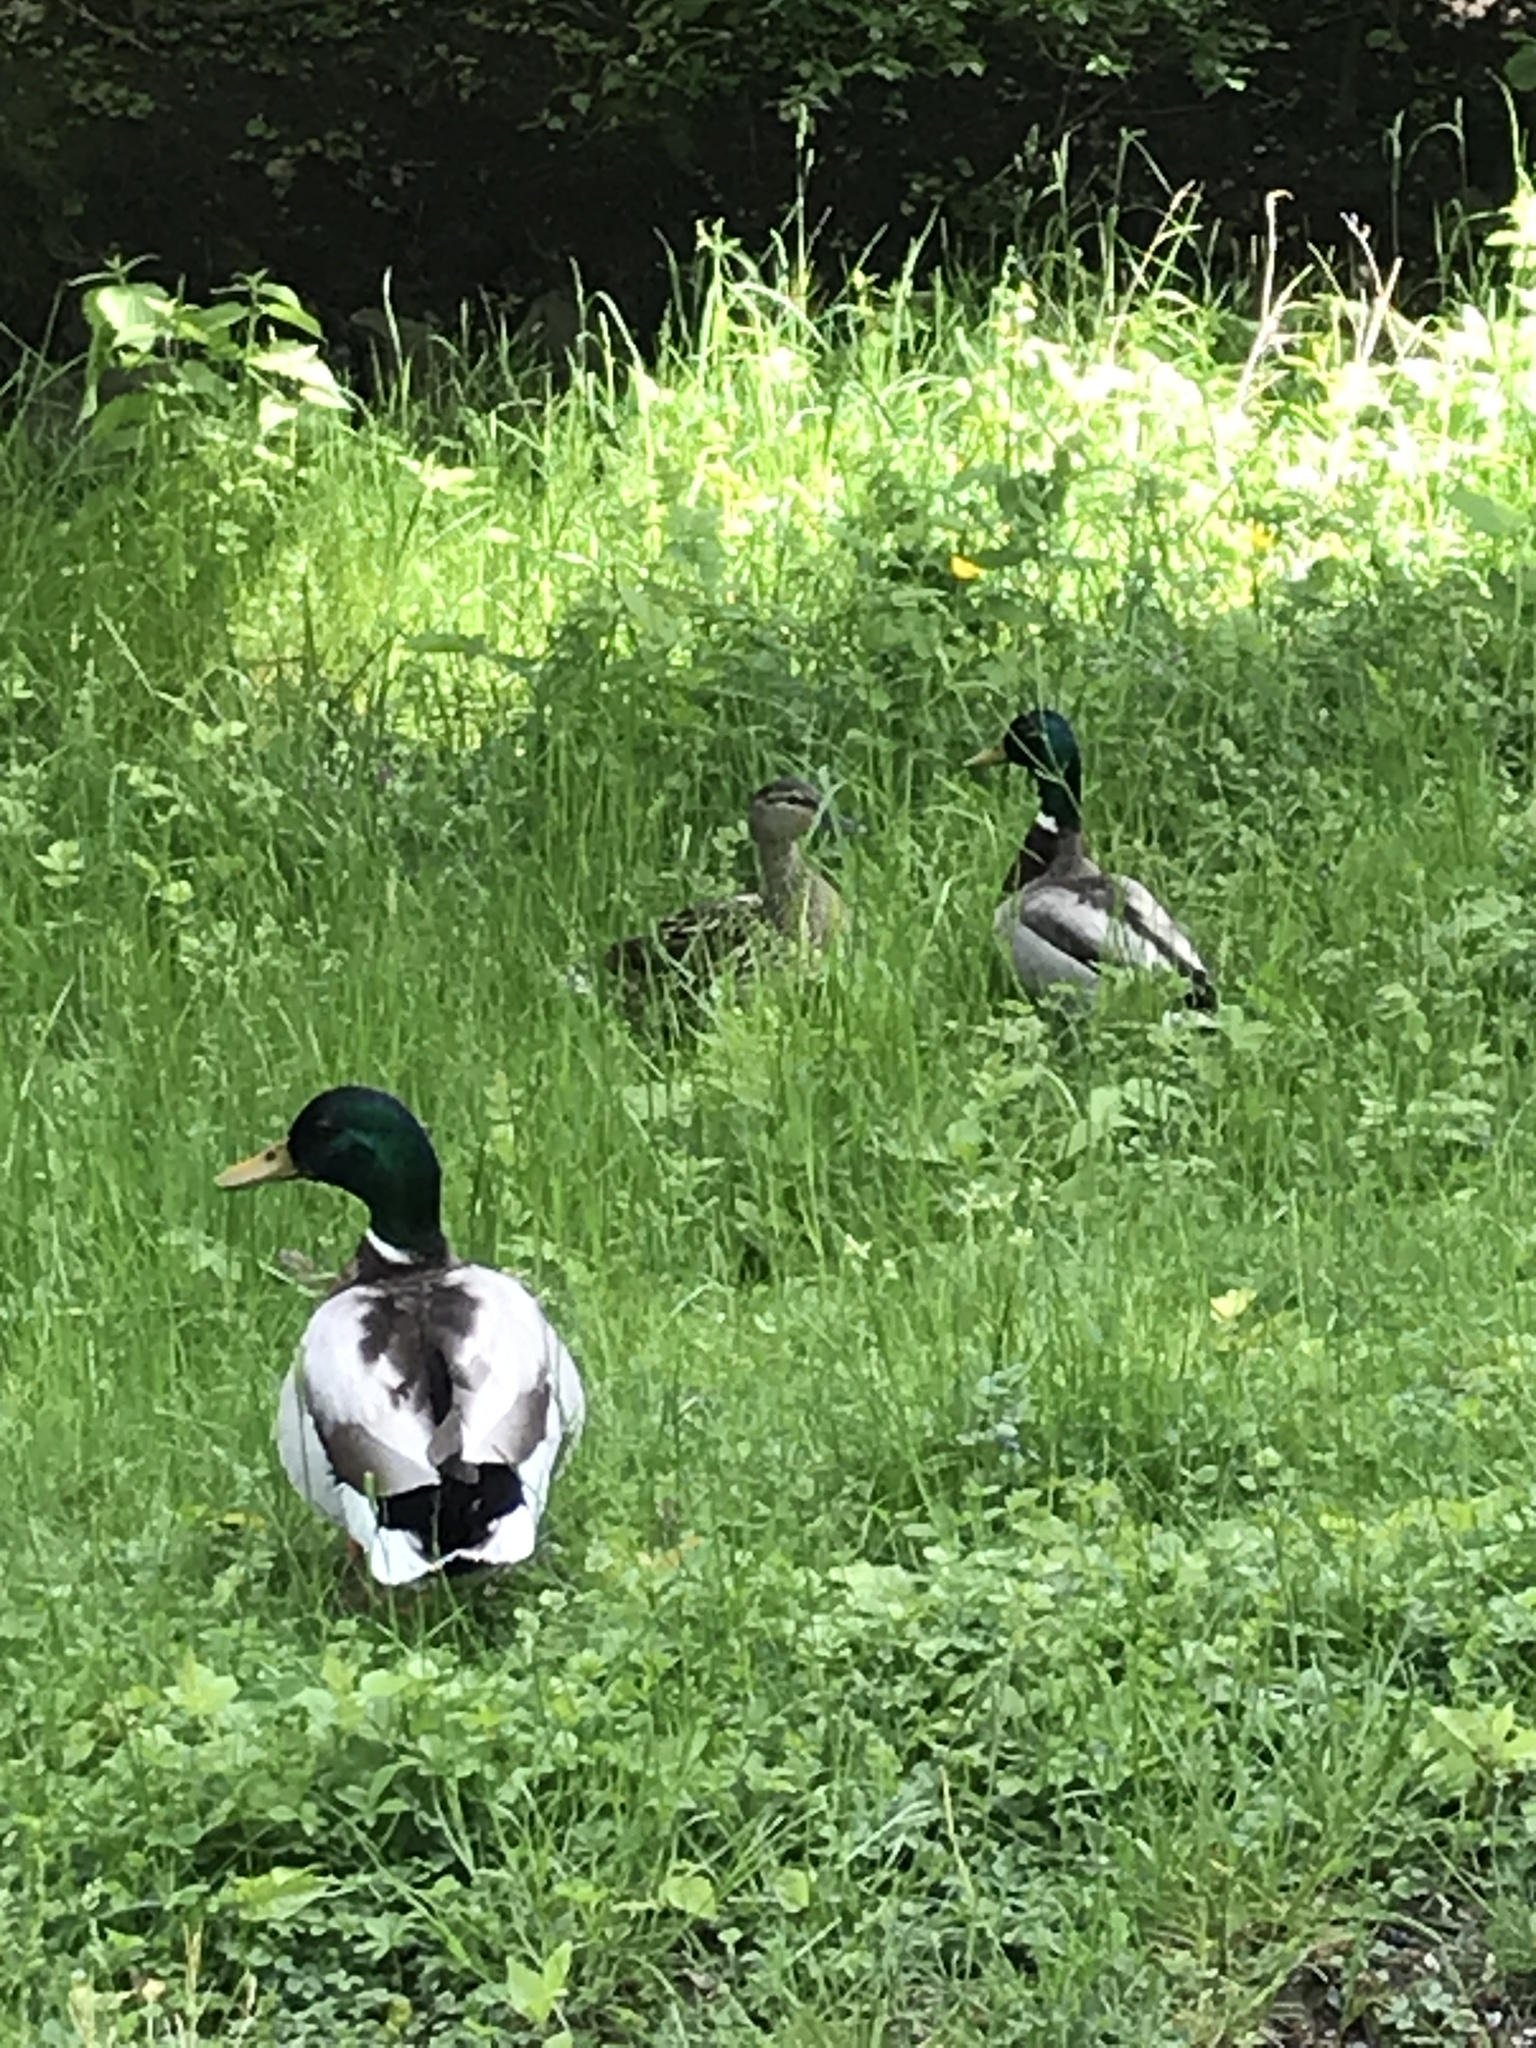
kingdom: Animalia
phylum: Chordata
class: Aves
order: Anseriformes
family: Anatidae
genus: Anas
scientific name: Anas platyrhynchos
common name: Mallard
